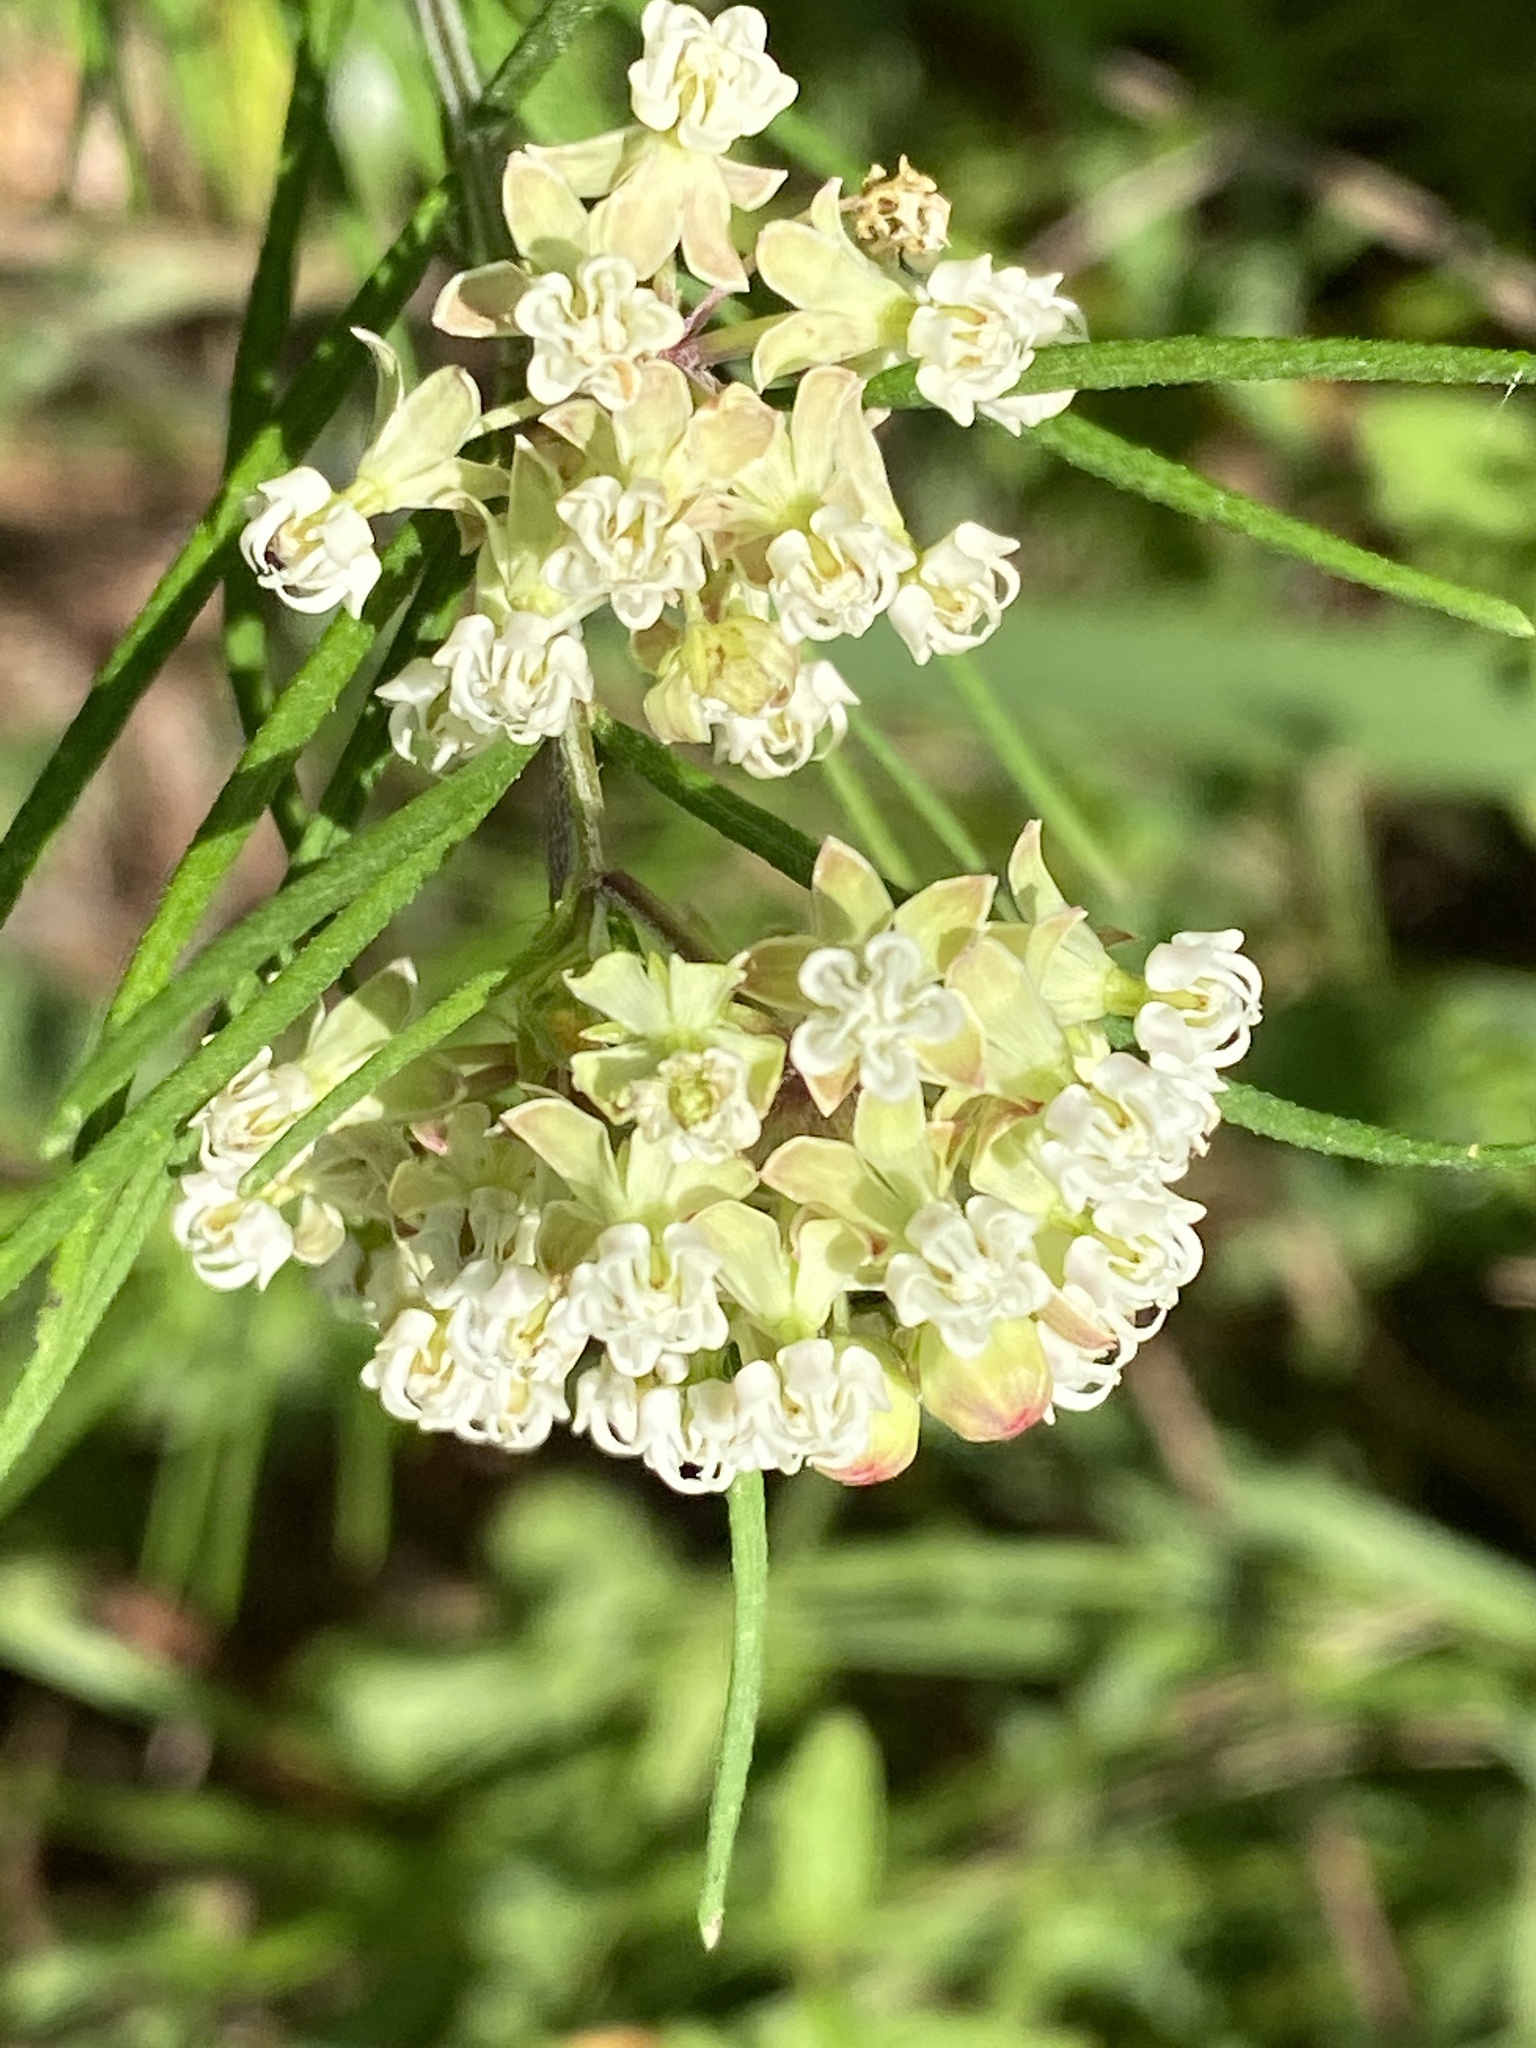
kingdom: Plantae
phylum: Tracheophyta
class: Magnoliopsida
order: Gentianales
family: Apocynaceae
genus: Asclepias
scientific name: Asclepias verticillata
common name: Eastern whorled milkweed
